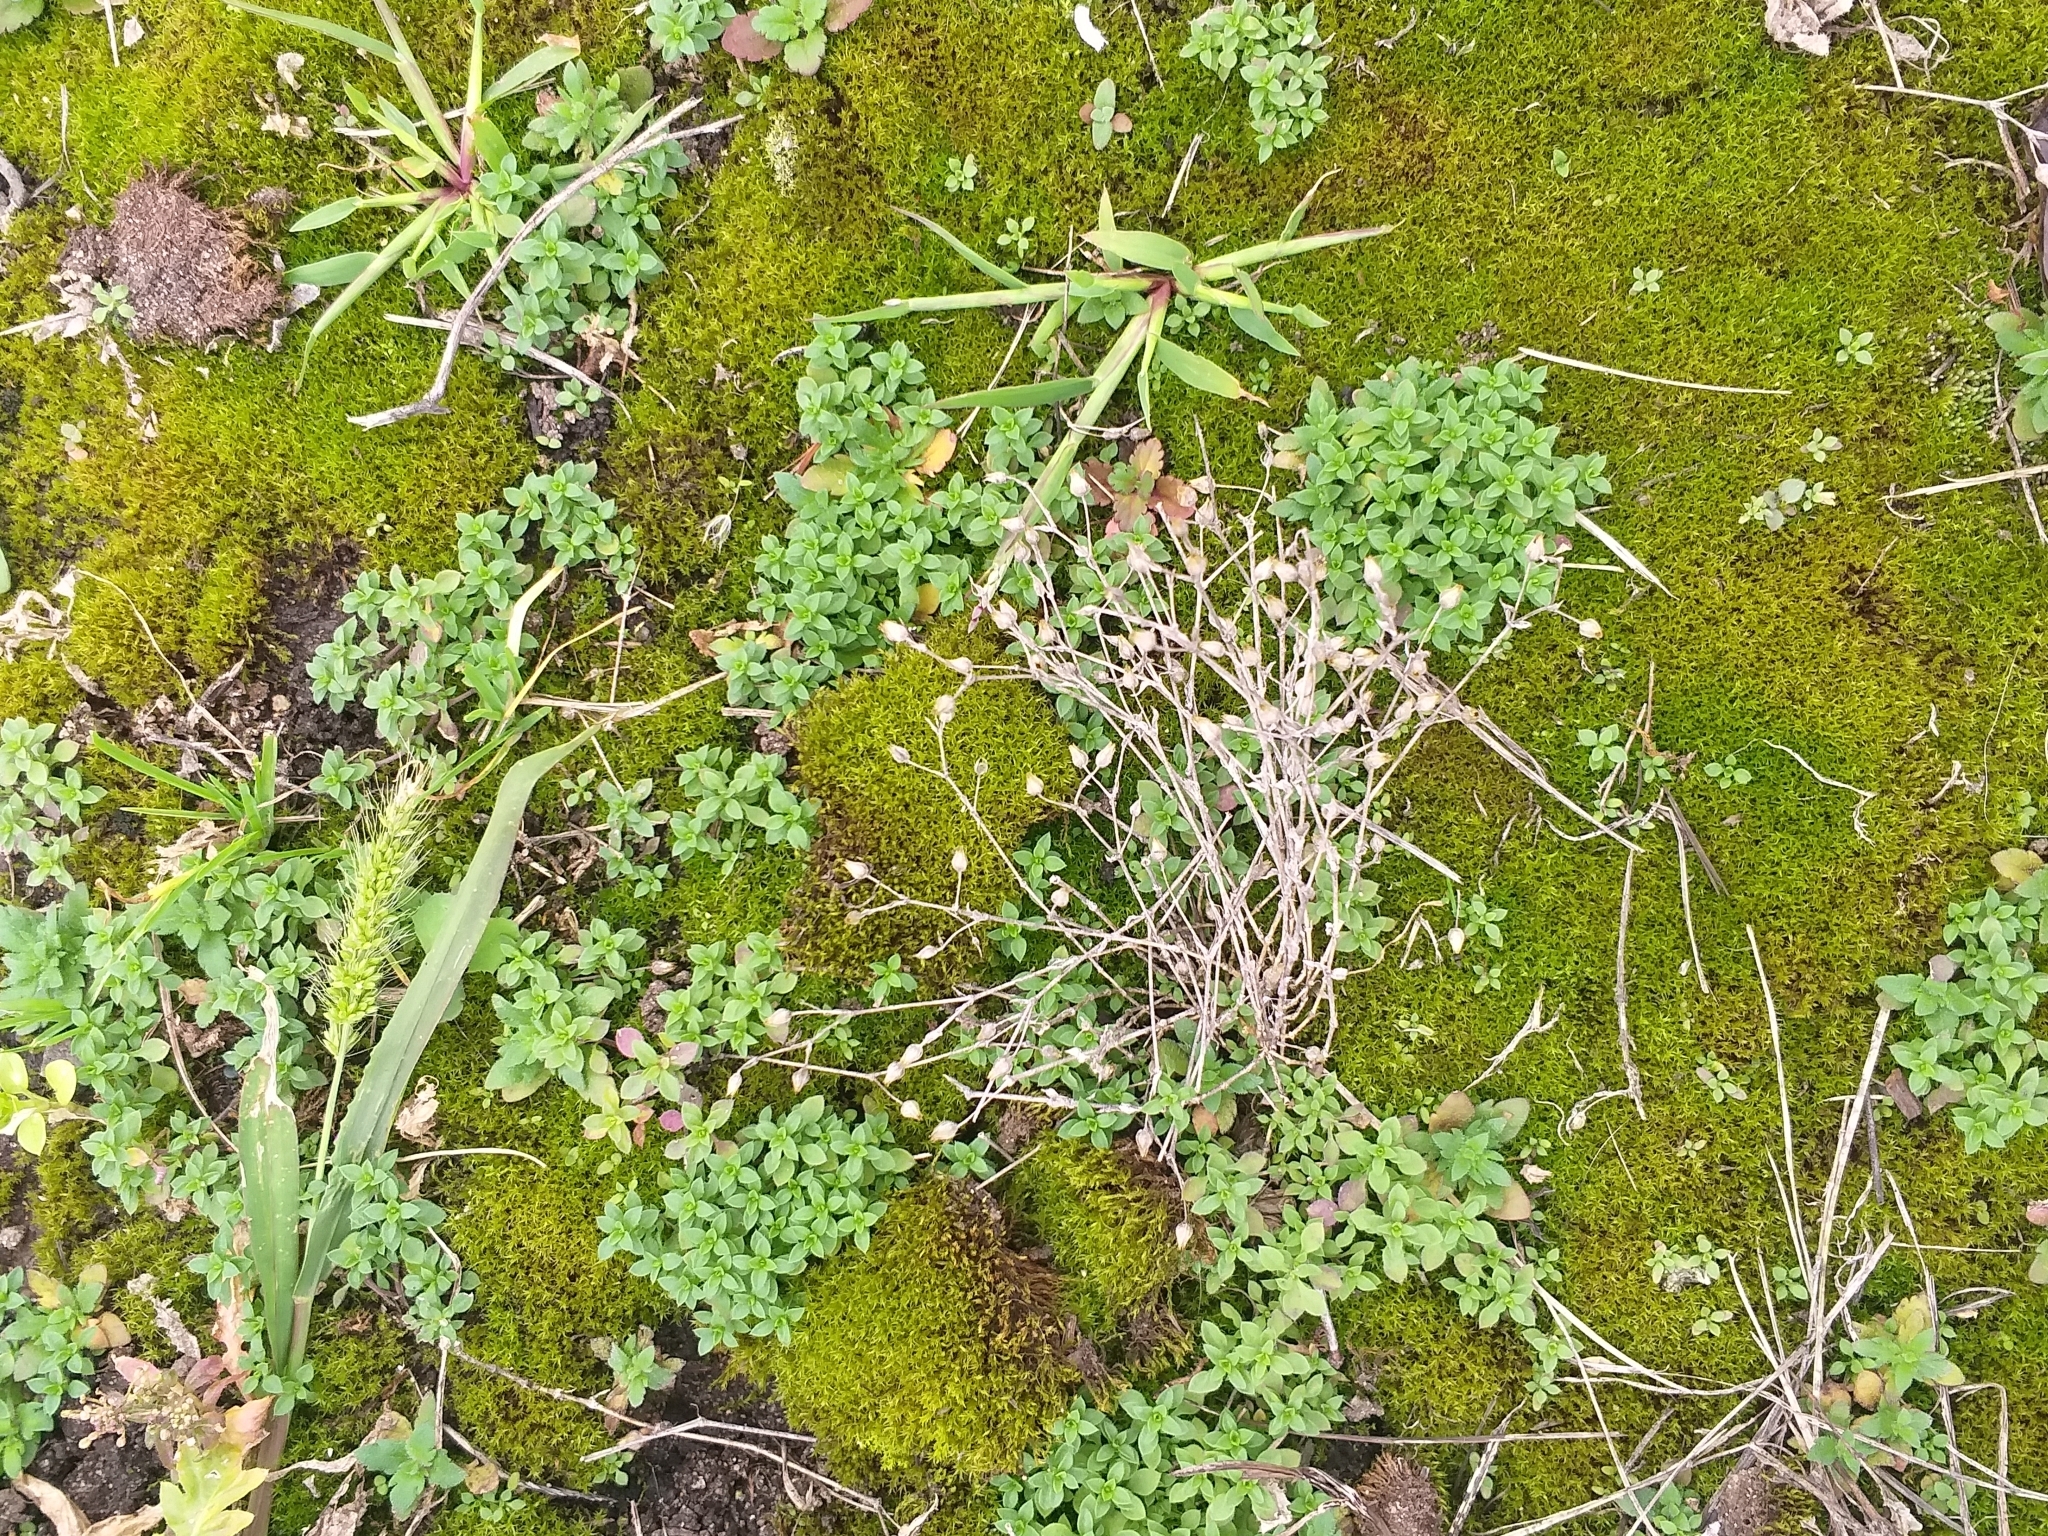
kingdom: Plantae
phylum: Tracheophyta
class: Magnoliopsida
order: Caryophyllales
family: Caryophyllaceae
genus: Arenaria
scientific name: Arenaria serpyllifolia
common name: Thyme-leaved sandwort
